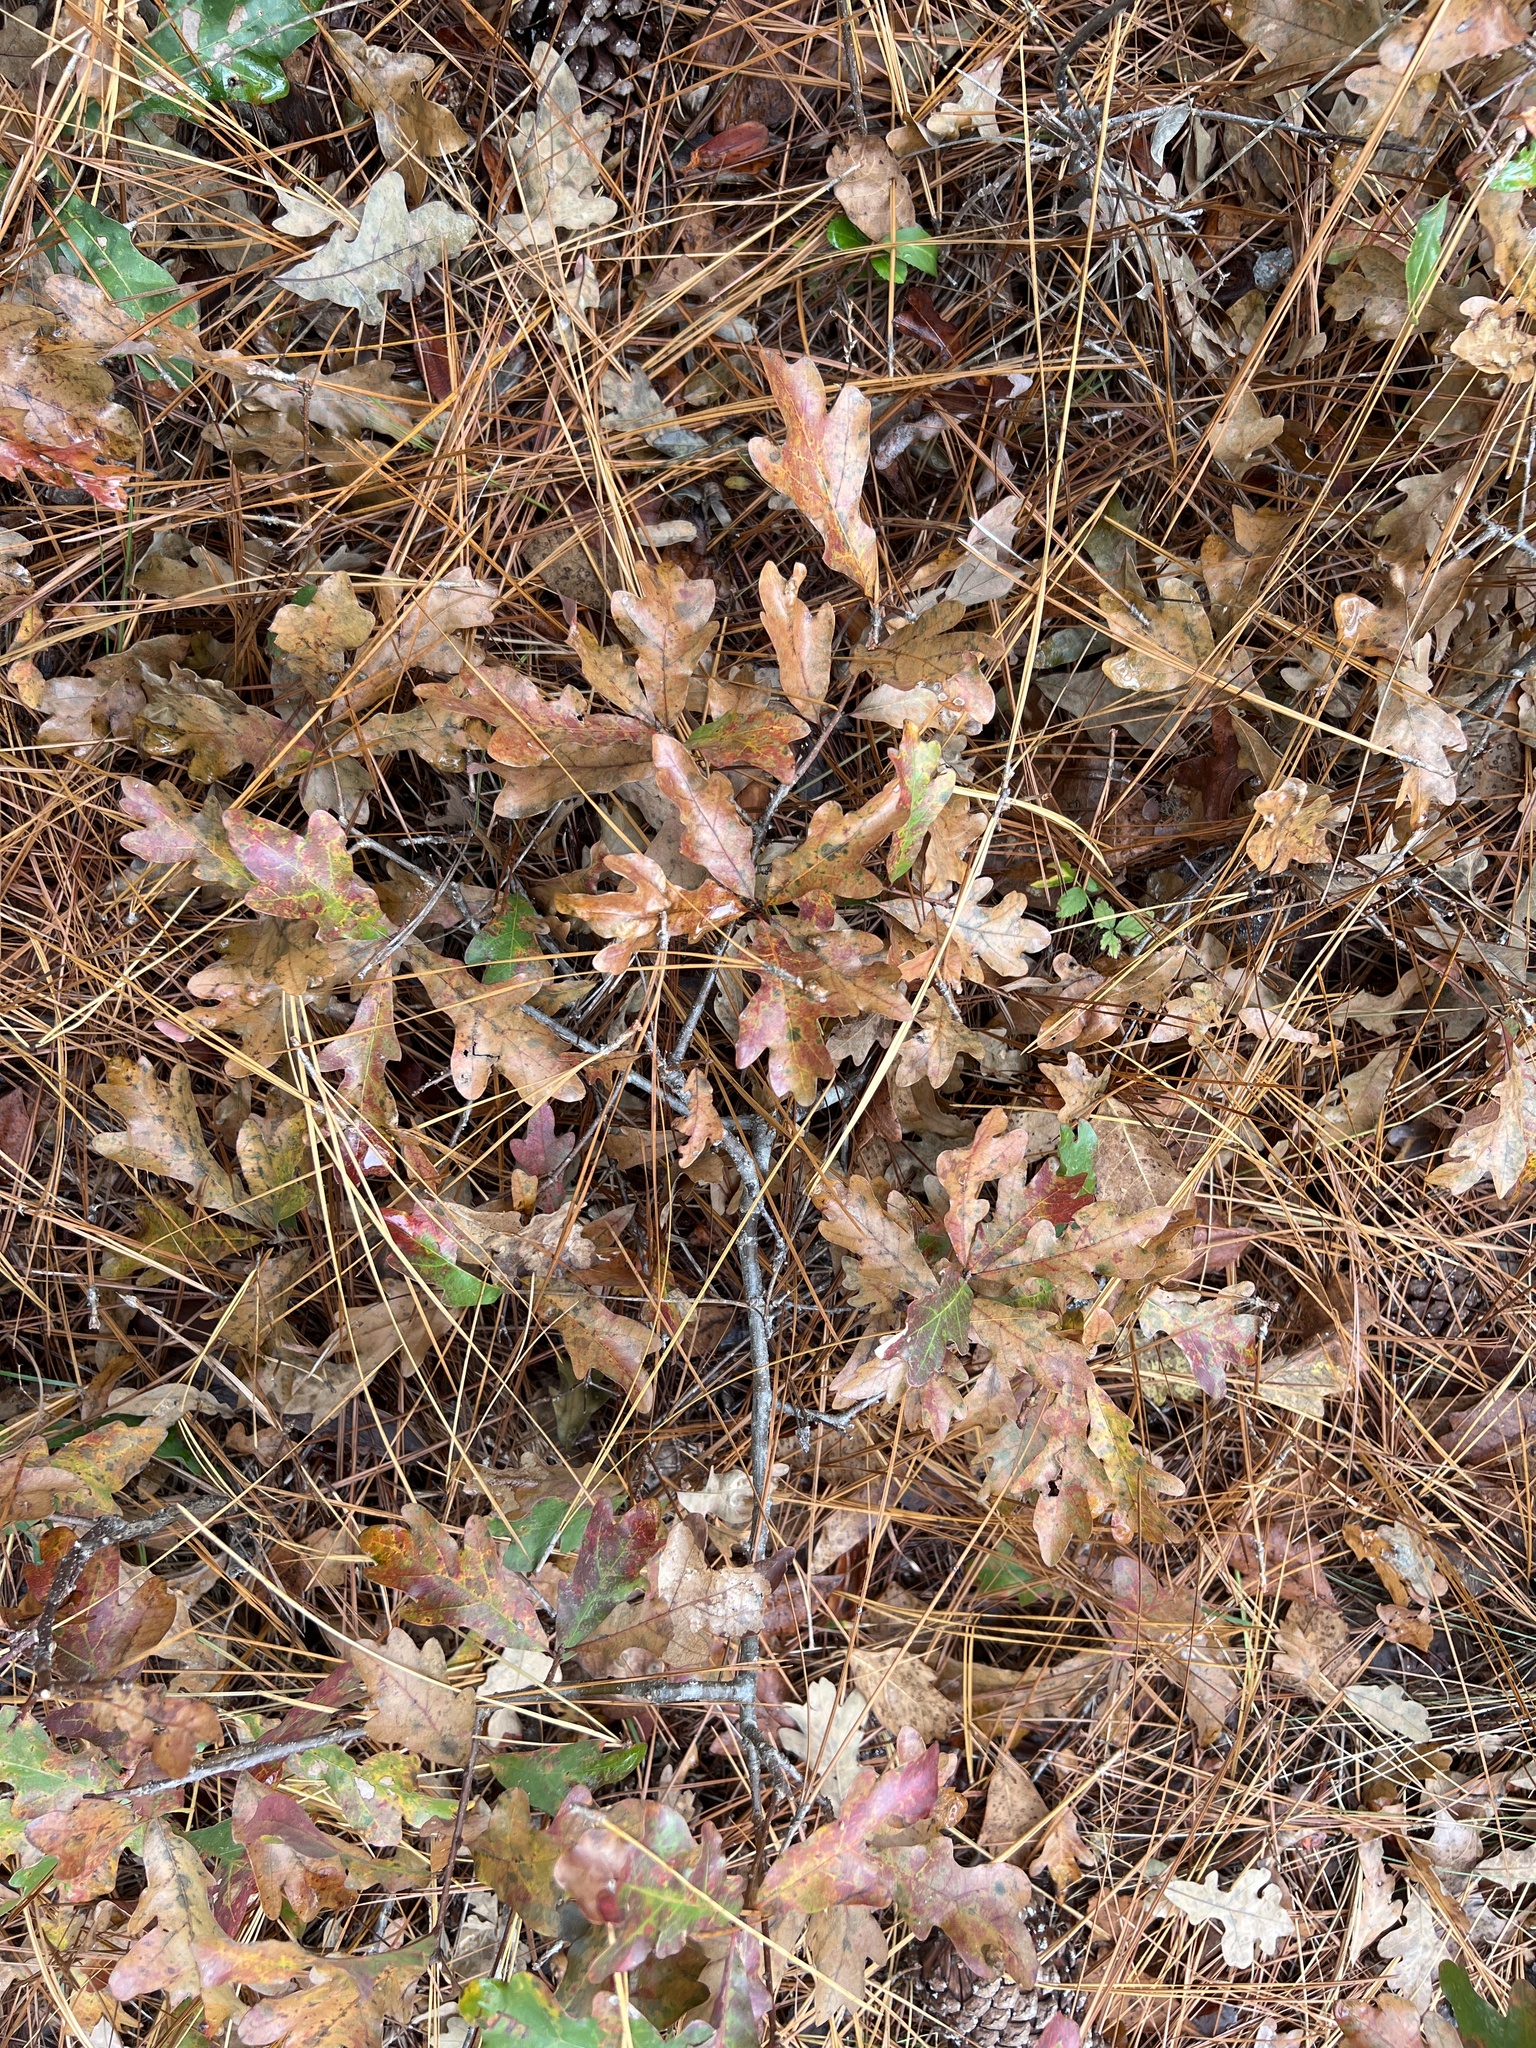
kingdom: Plantae
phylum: Tracheophyta
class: Magnoliopsida
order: Fagales
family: Fagaceae
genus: Quercus
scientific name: Quercus margaretiae
